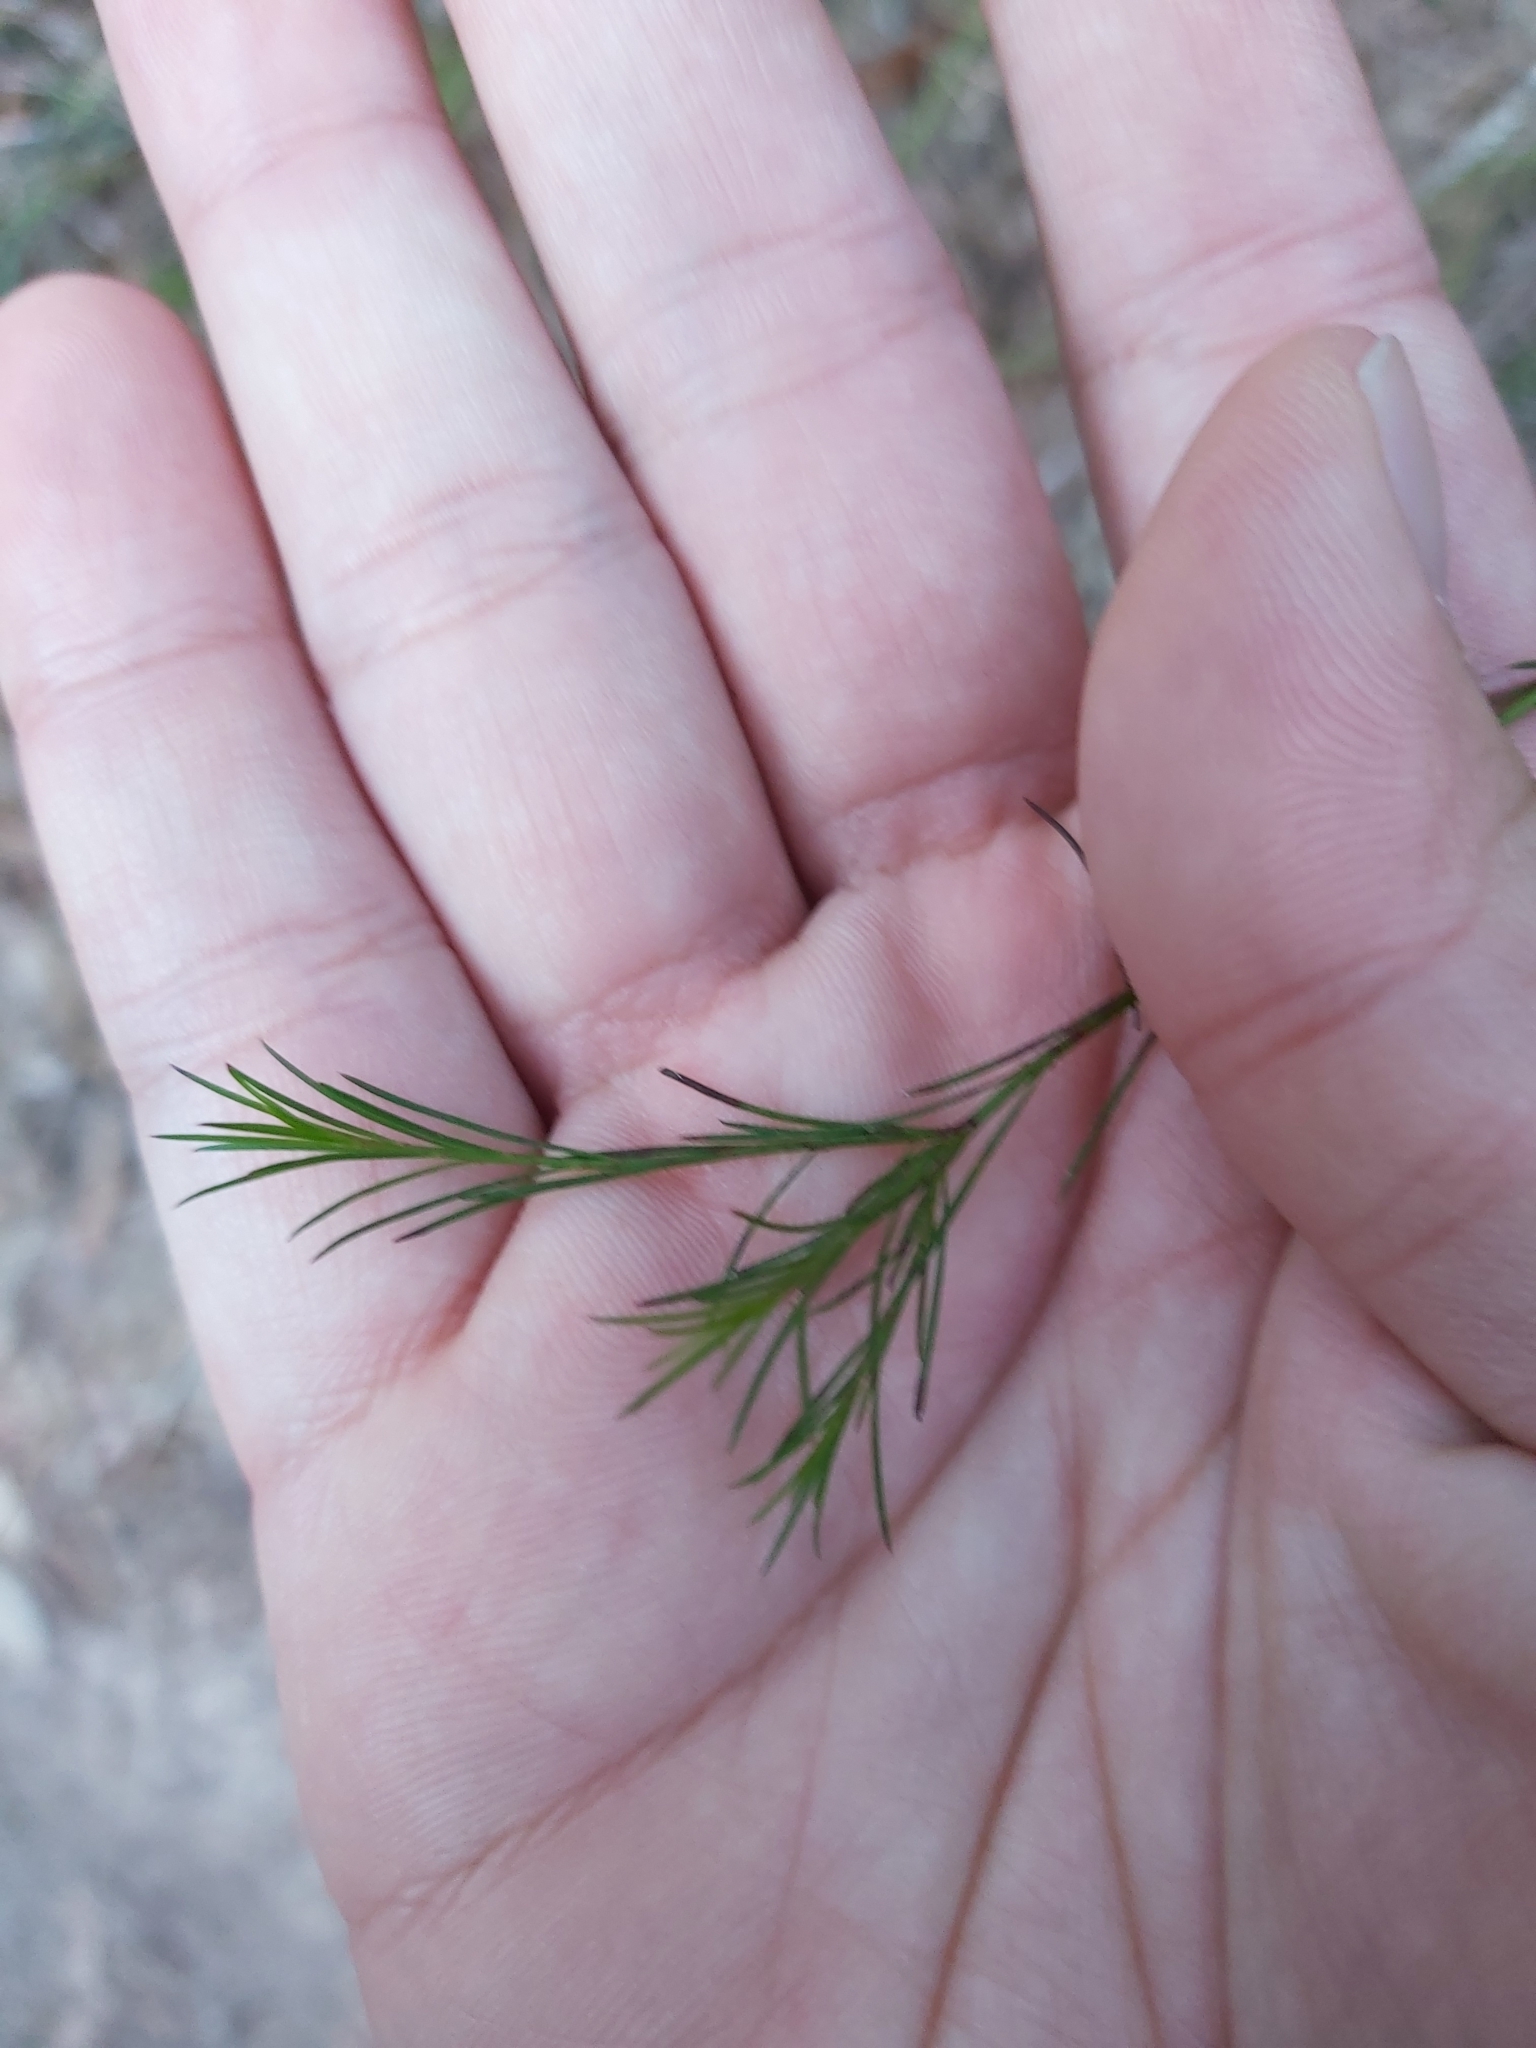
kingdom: Plantae
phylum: Tracheophyta
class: Magnoliopsida
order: Apiales
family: Apiaceae
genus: Platysace
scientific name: Platysace linearifolia
